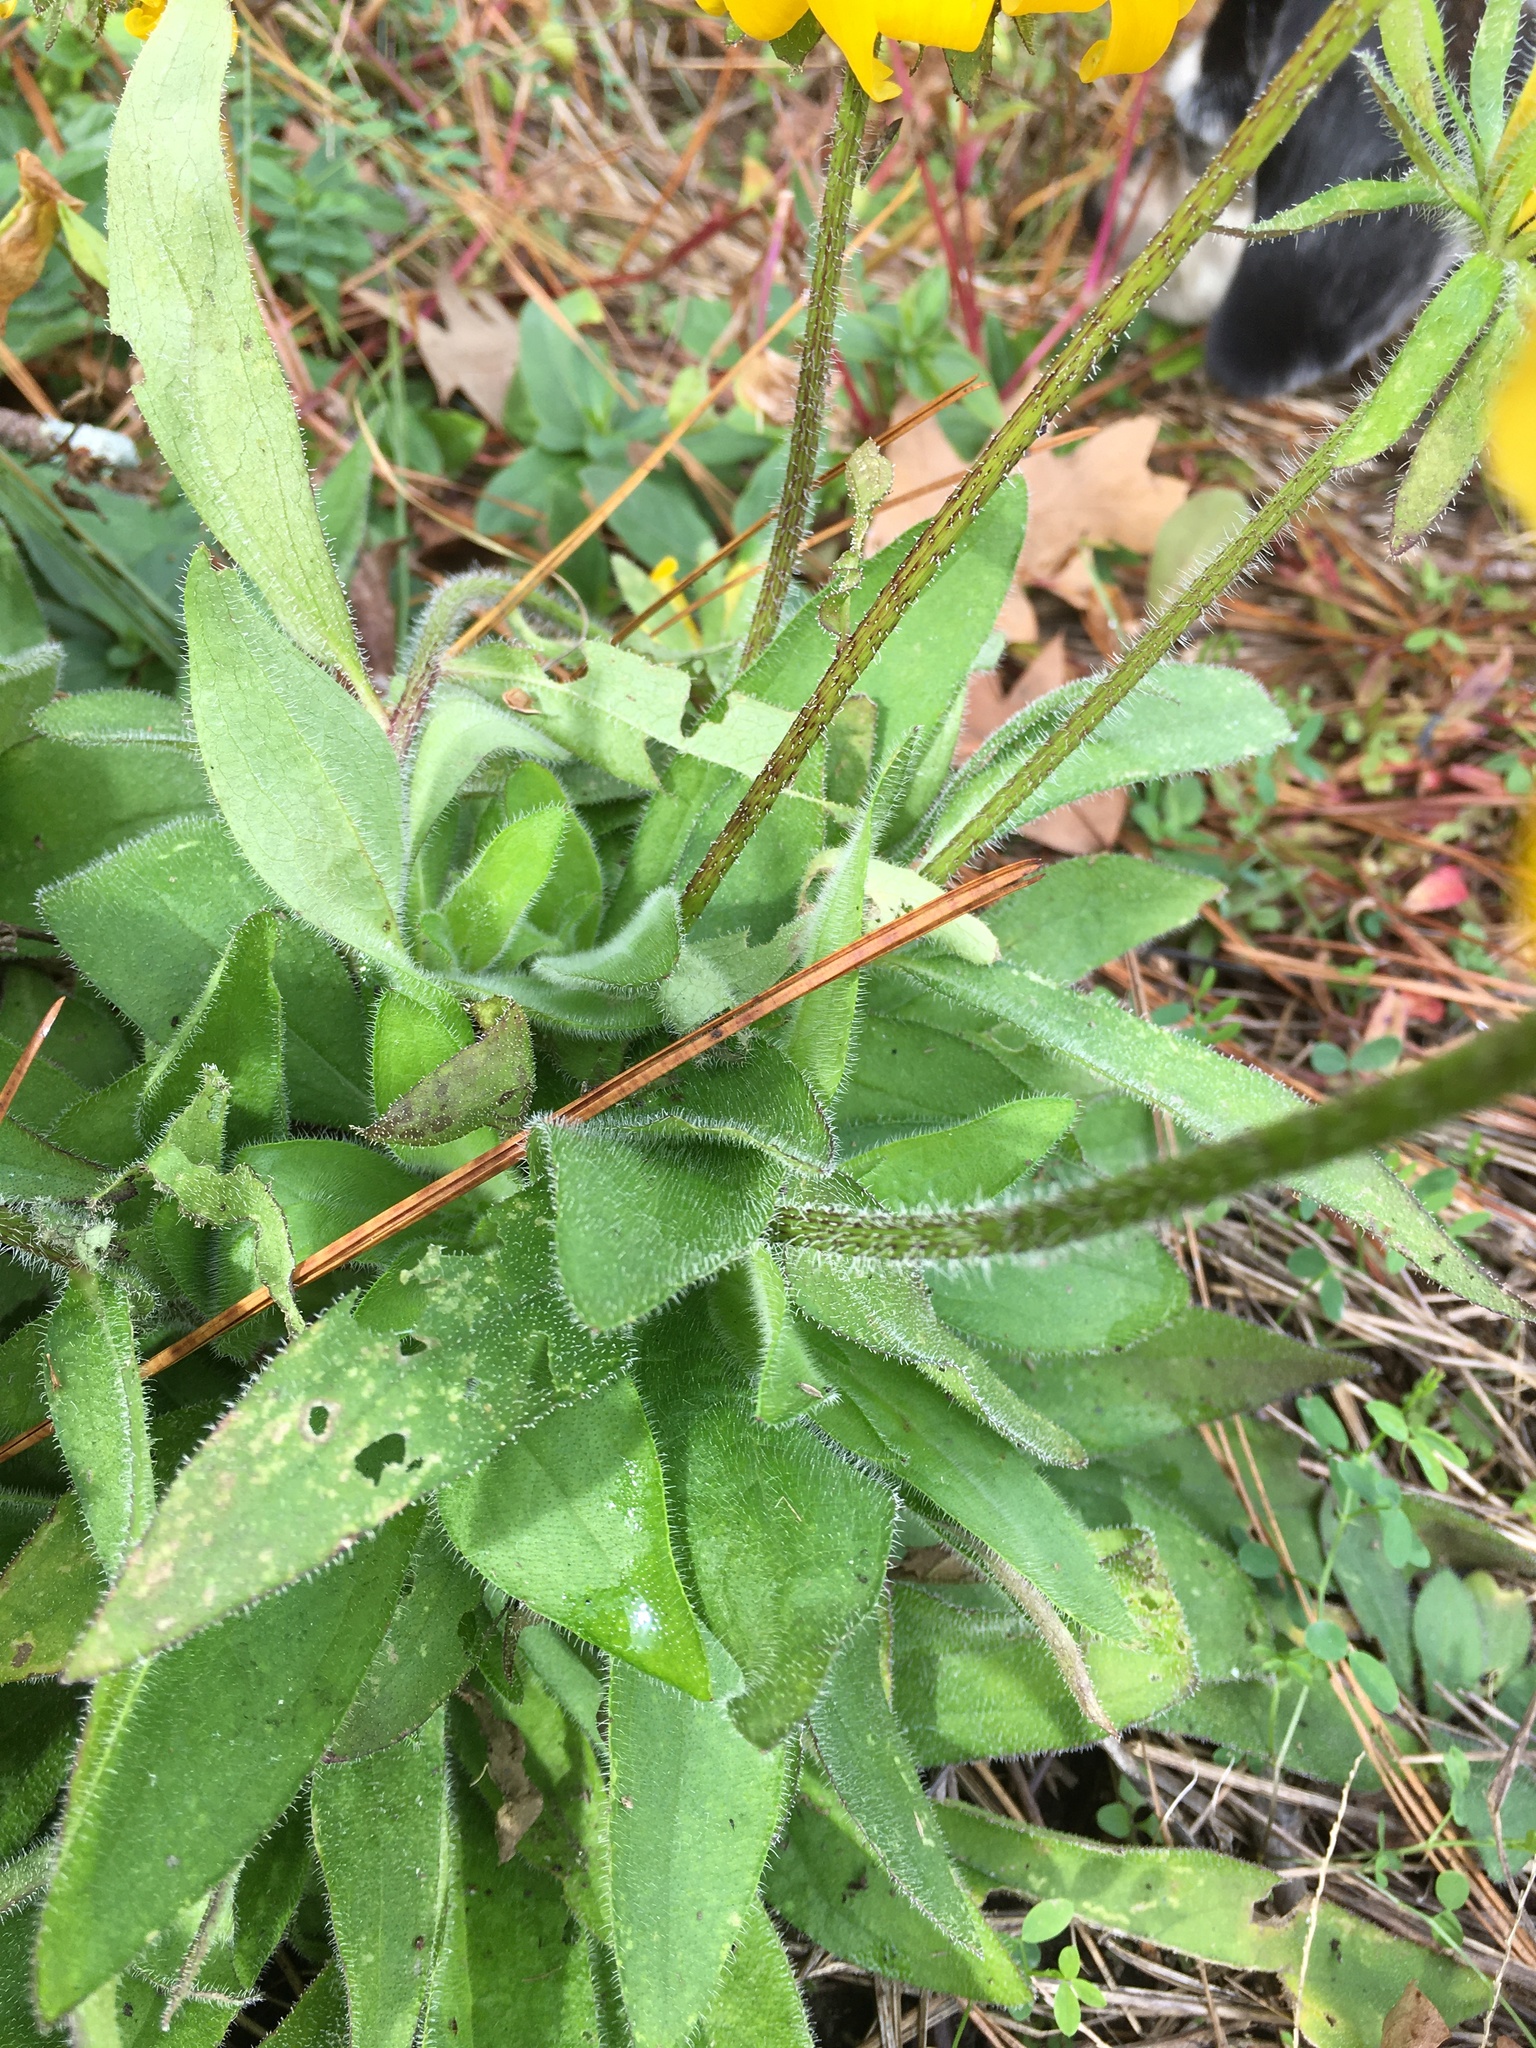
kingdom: Plantae
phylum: Tracheophyta
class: Magnoliopsida
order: Asterales
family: Asteraceae
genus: Rudbeckia
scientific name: Rudbeckia hirta
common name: Black-eyed-susan
